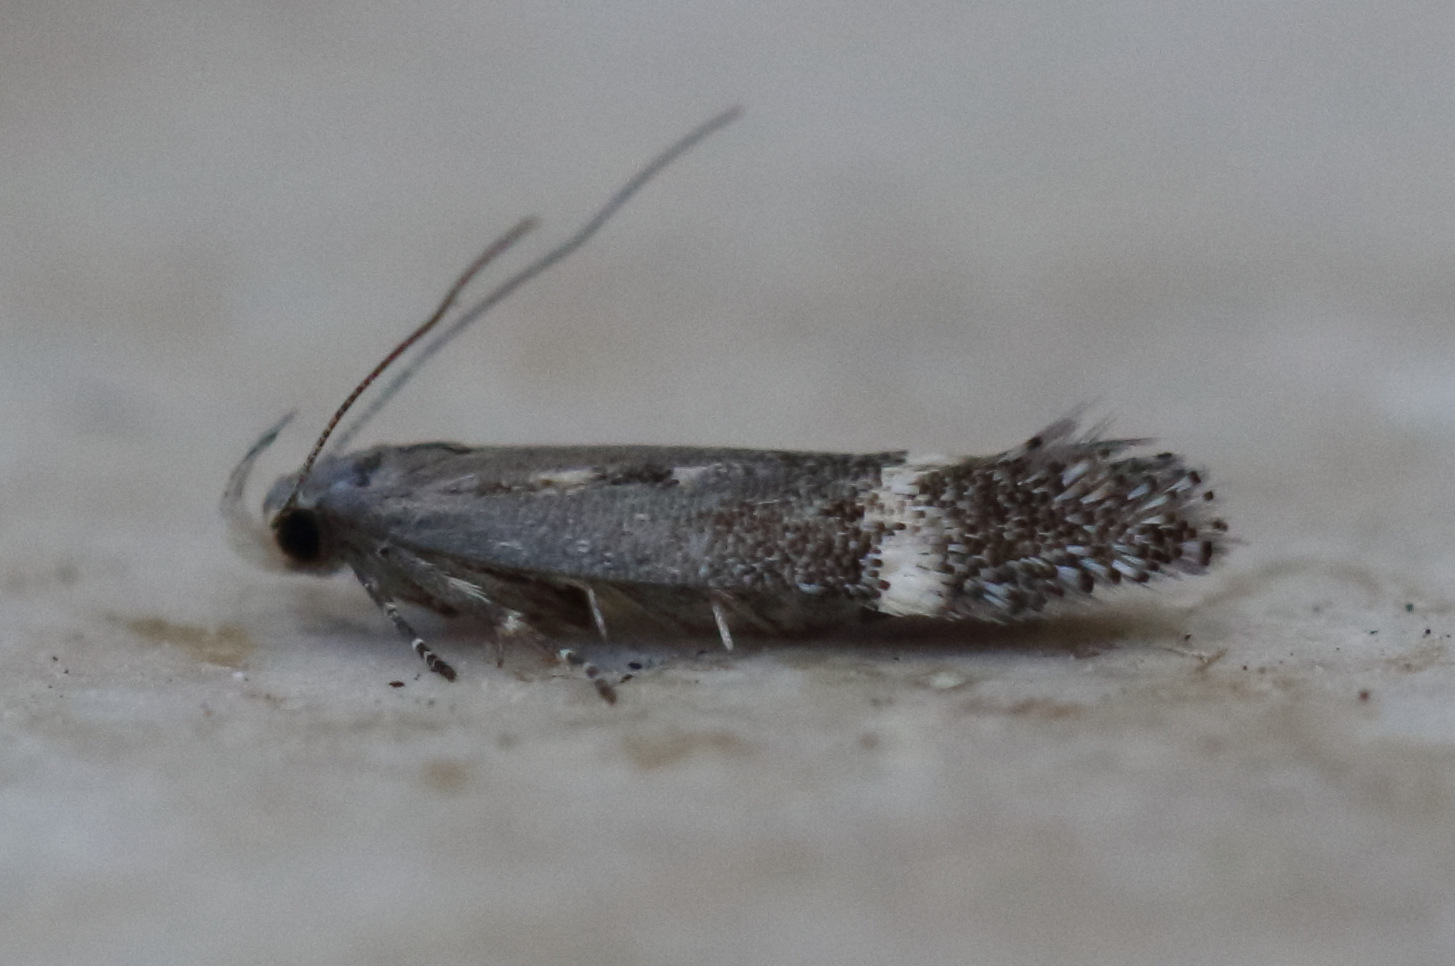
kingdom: Animalia
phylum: Arthropoda
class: Insecta
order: Lepidoptera
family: Gelechiidae
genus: Aproaerema
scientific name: Aproaerema simplexella
